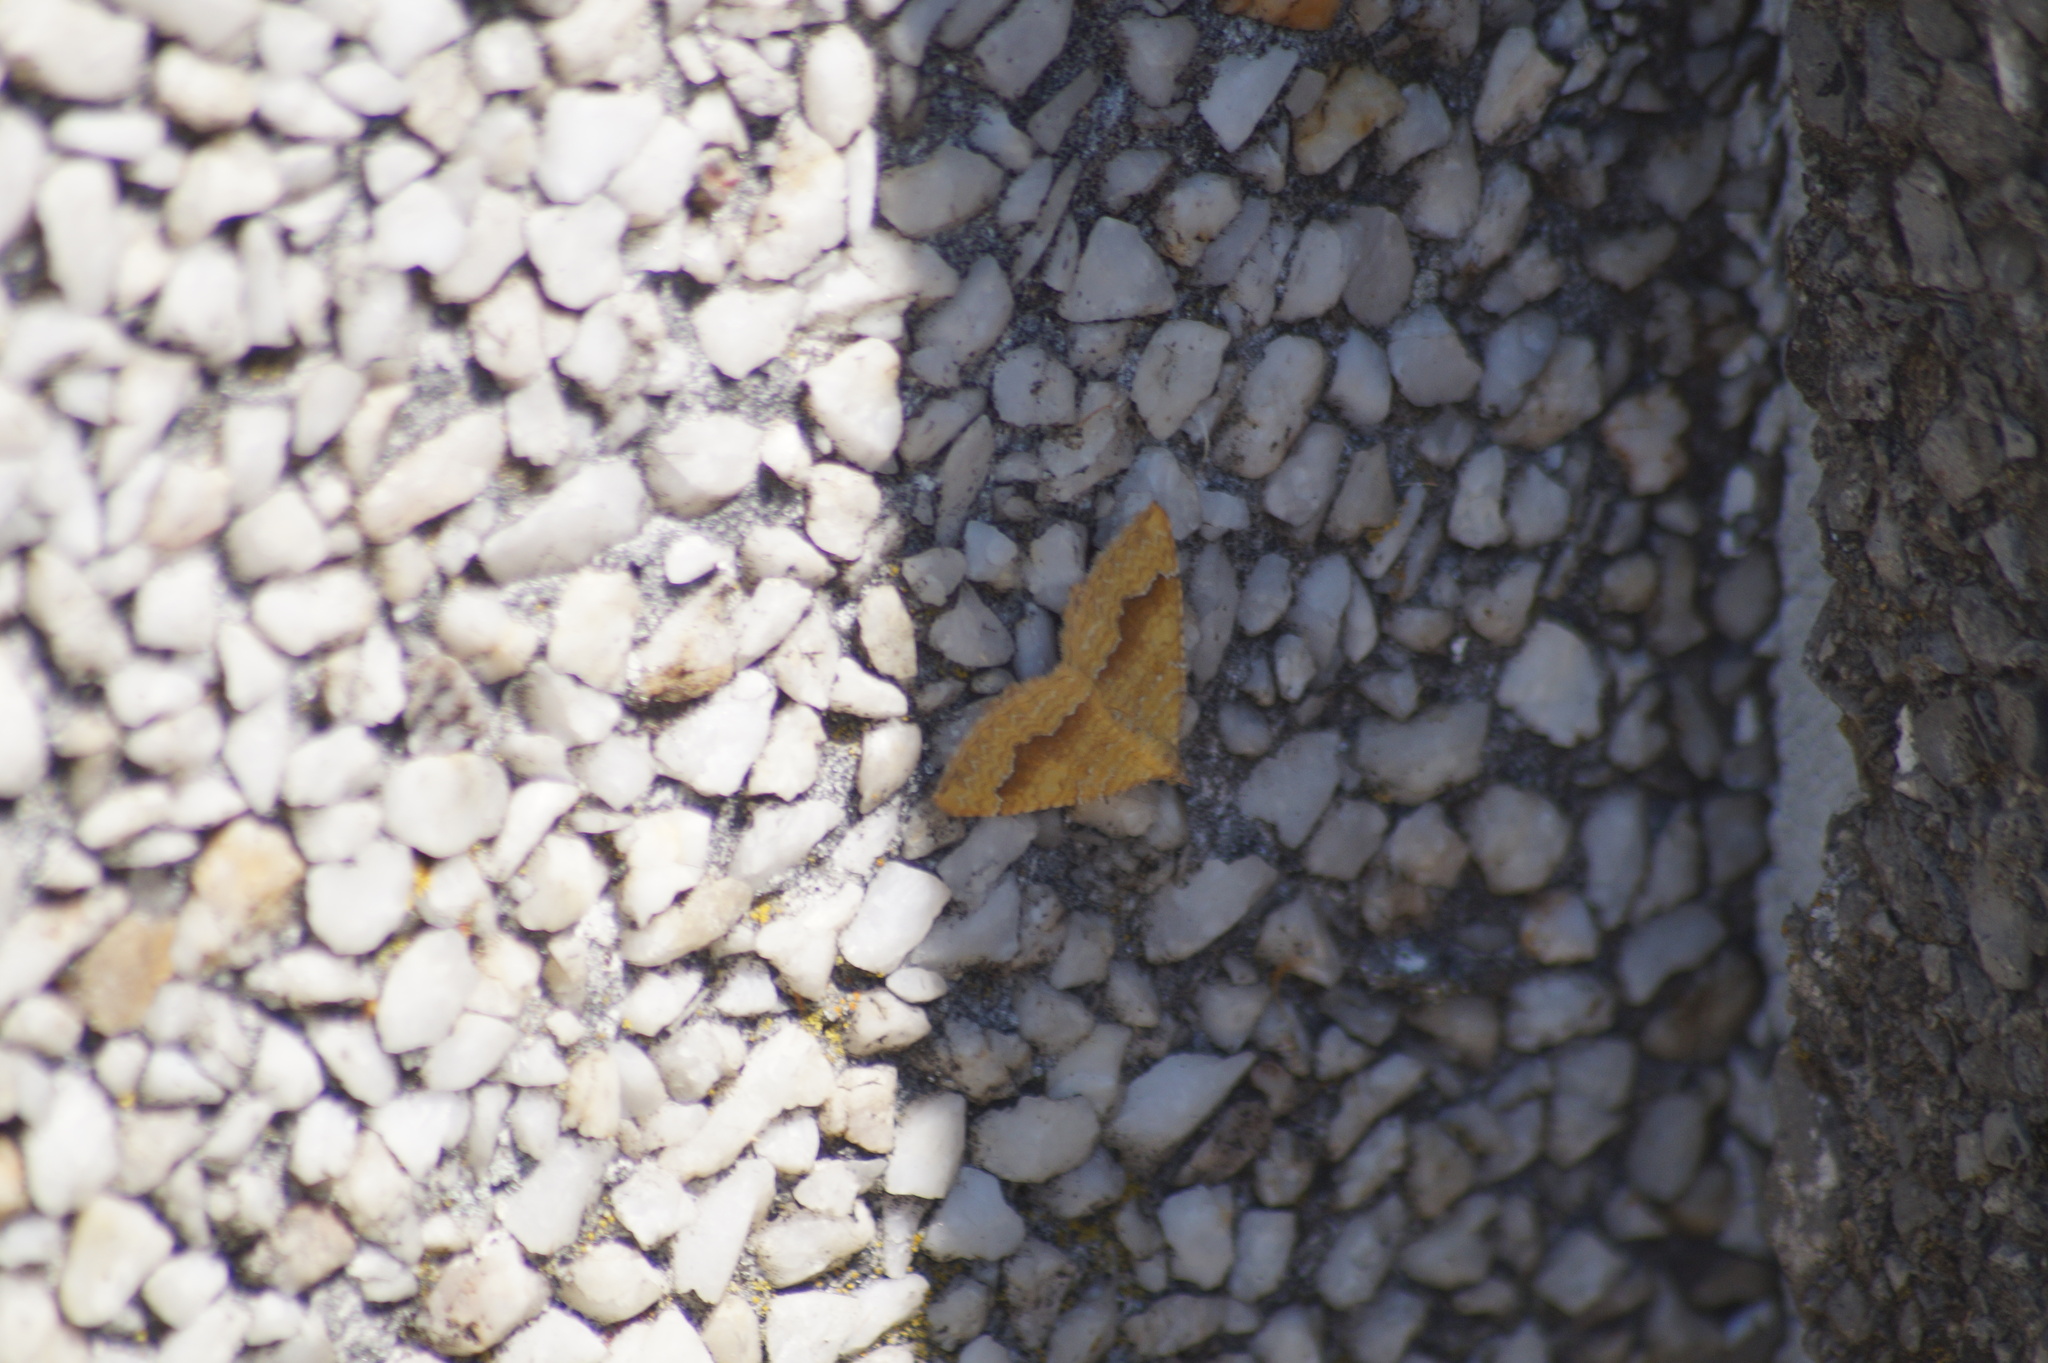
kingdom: Animalia
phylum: Arthropoda
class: Insecta
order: Lepidoptera
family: Geometridae
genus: Camptogramma
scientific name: Camptogramma bilineata
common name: Yellow shell
